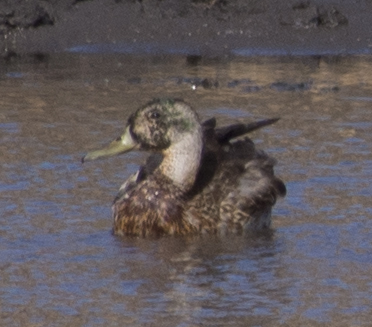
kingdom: Animalia
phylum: Chordata
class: Aves
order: Anseriformes
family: Anatidae
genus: Anas
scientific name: Anas platyrhynchos
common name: Mallard
